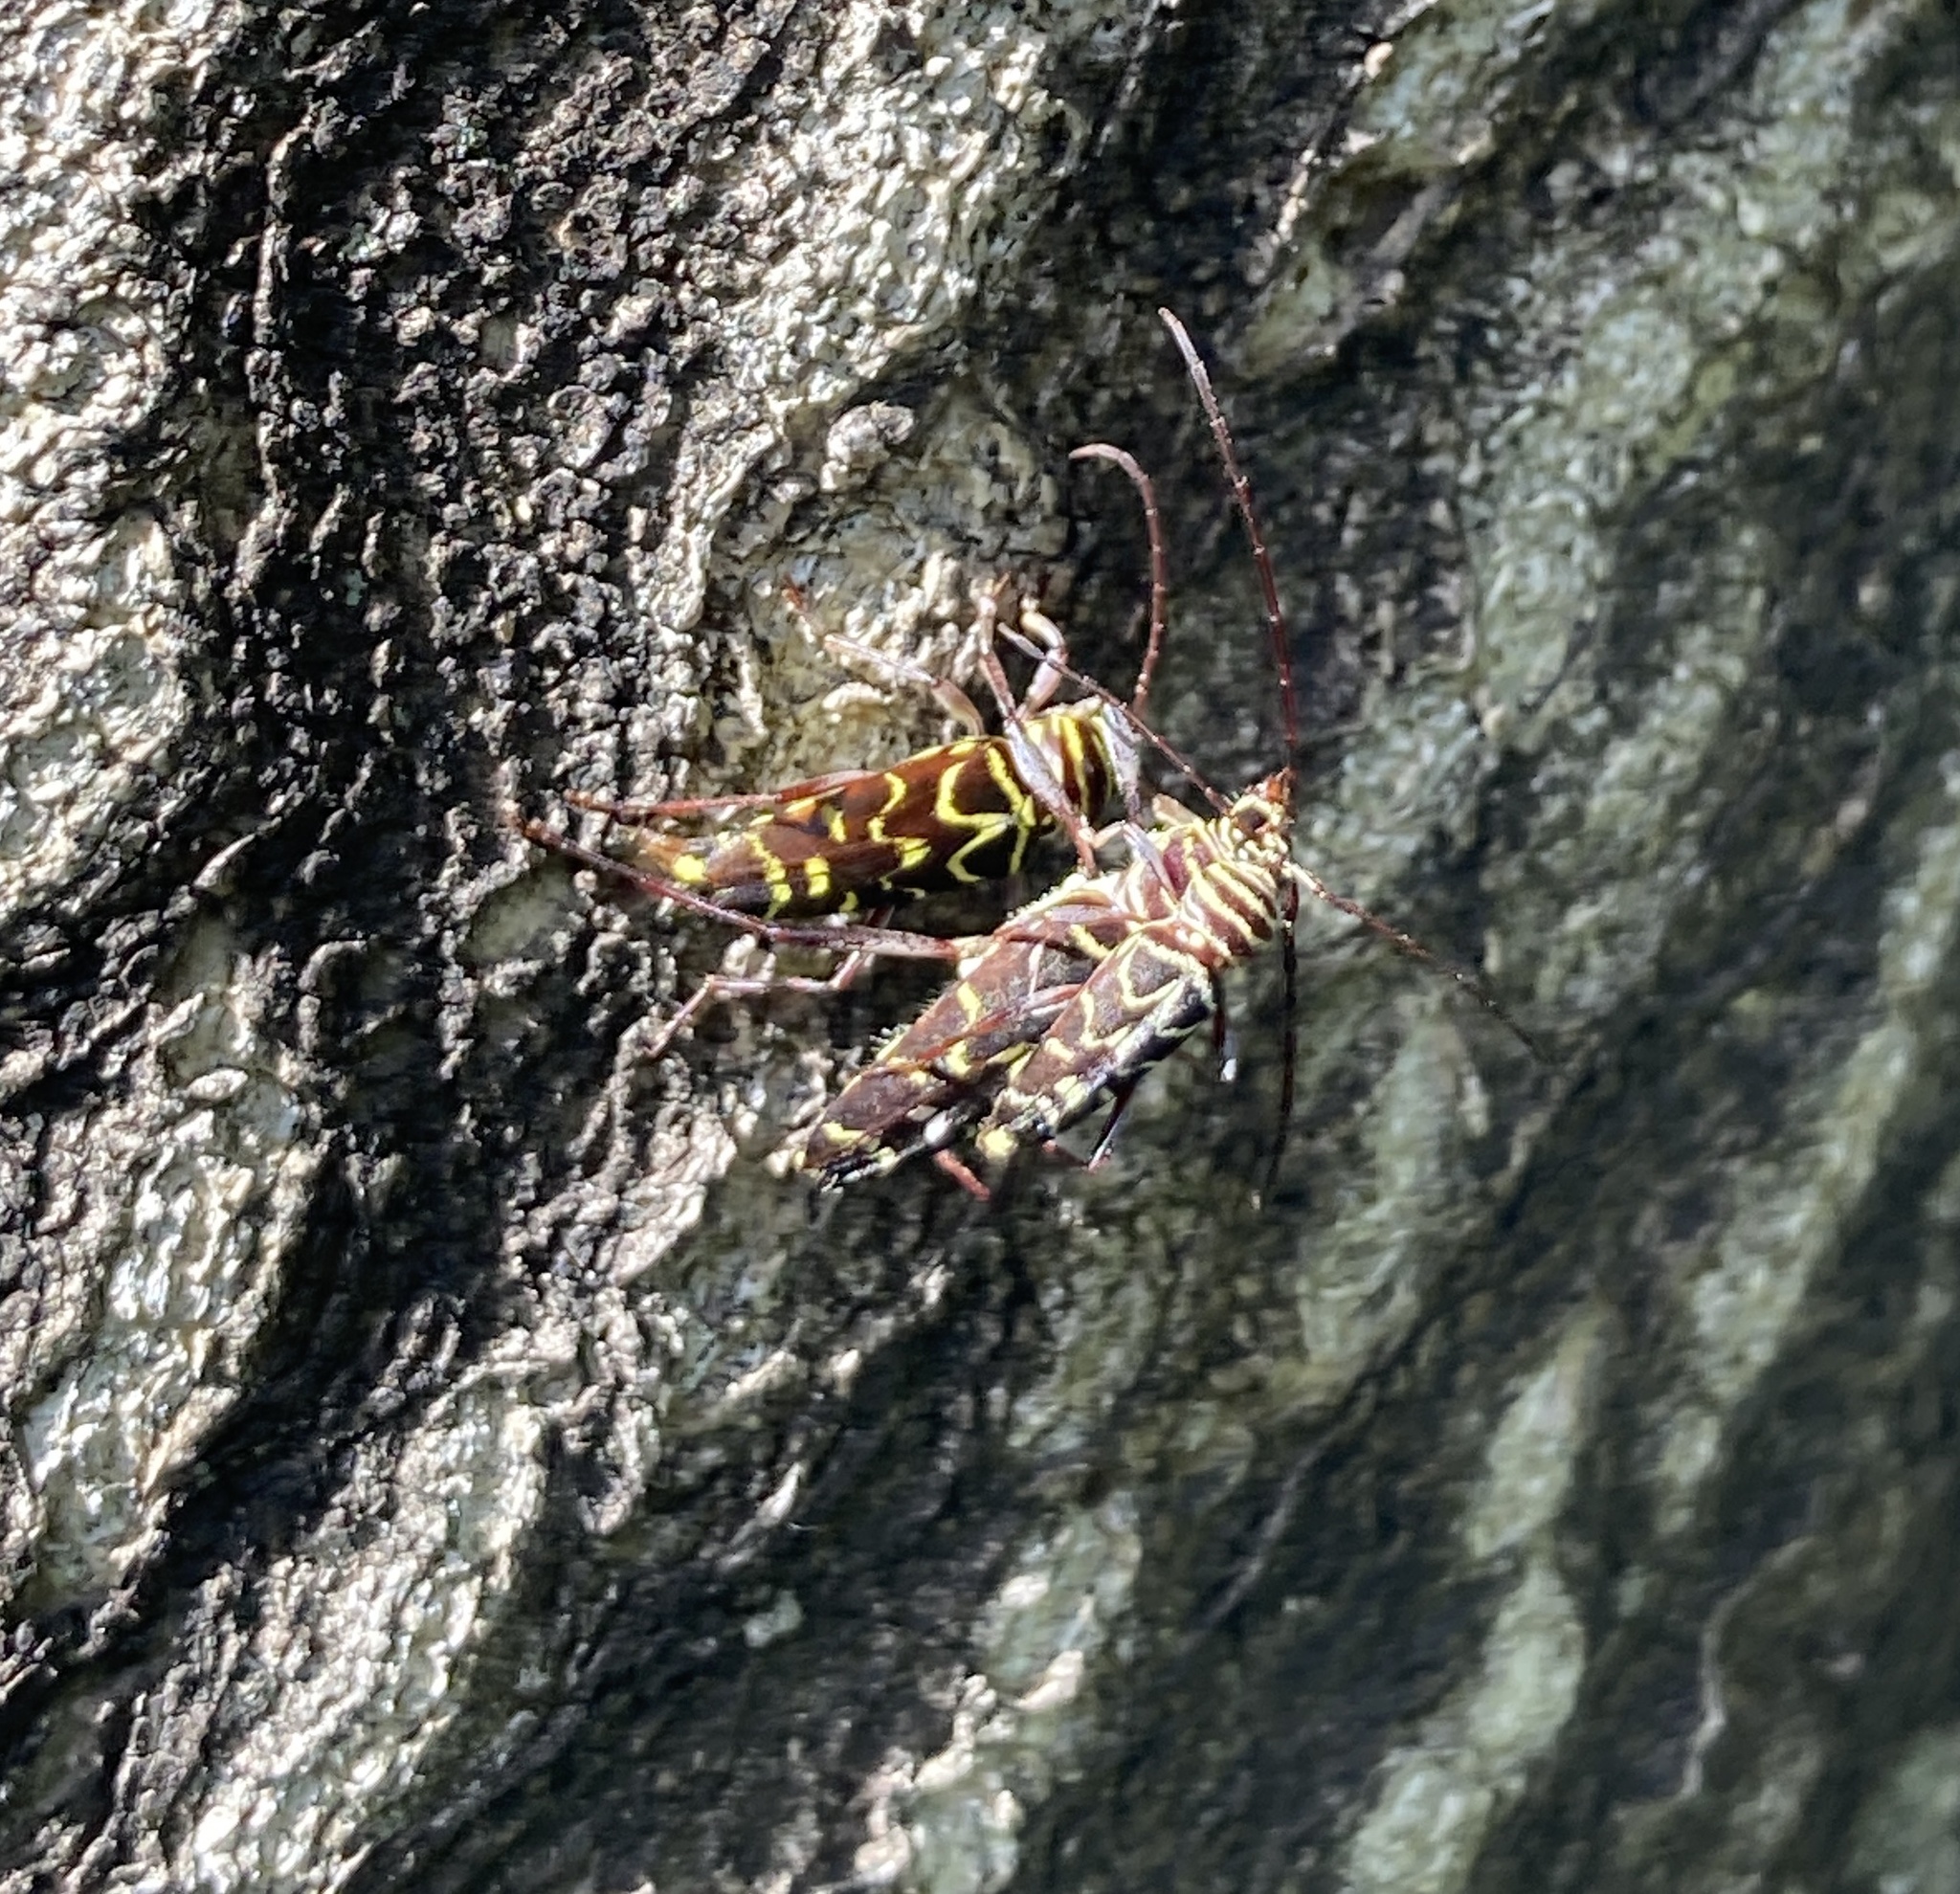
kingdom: Animalia
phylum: Arthropoda
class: Insecta
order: Coleoptera
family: Cerambycidae
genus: Megacyllene
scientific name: Megacyllene acuta
